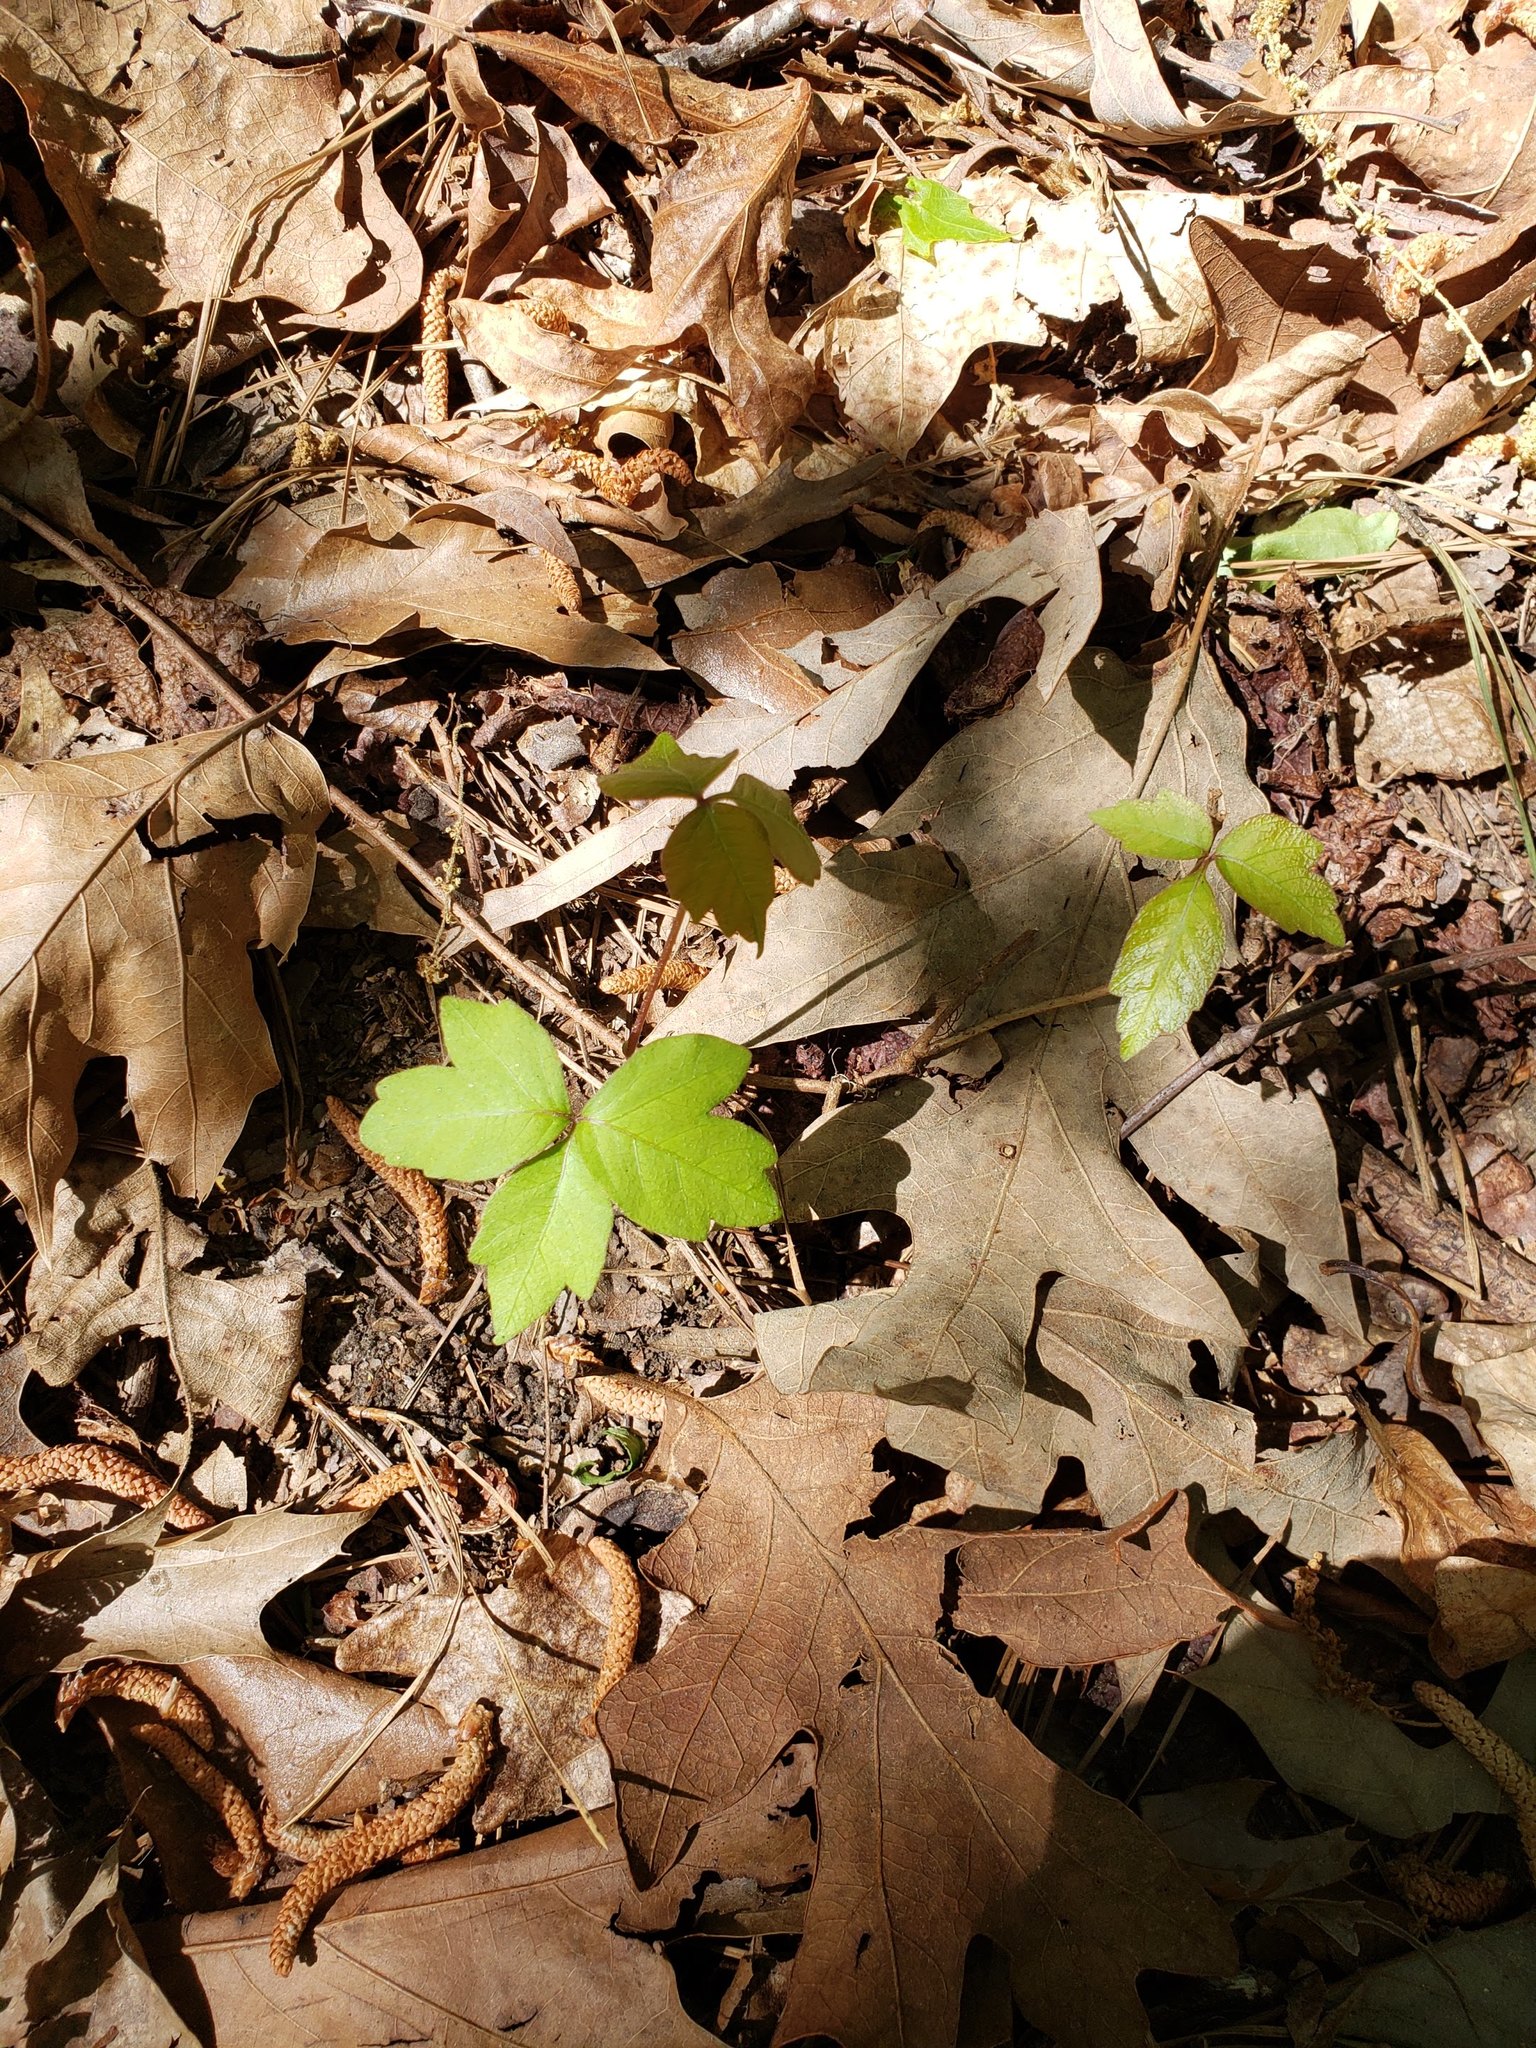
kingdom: Plantae
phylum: Tracheophyta
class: Magnoliopsida
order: Sapindales
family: Anacardiaceae
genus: Toxicodendron
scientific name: Toxicodendron radicans
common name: Poison ivy
